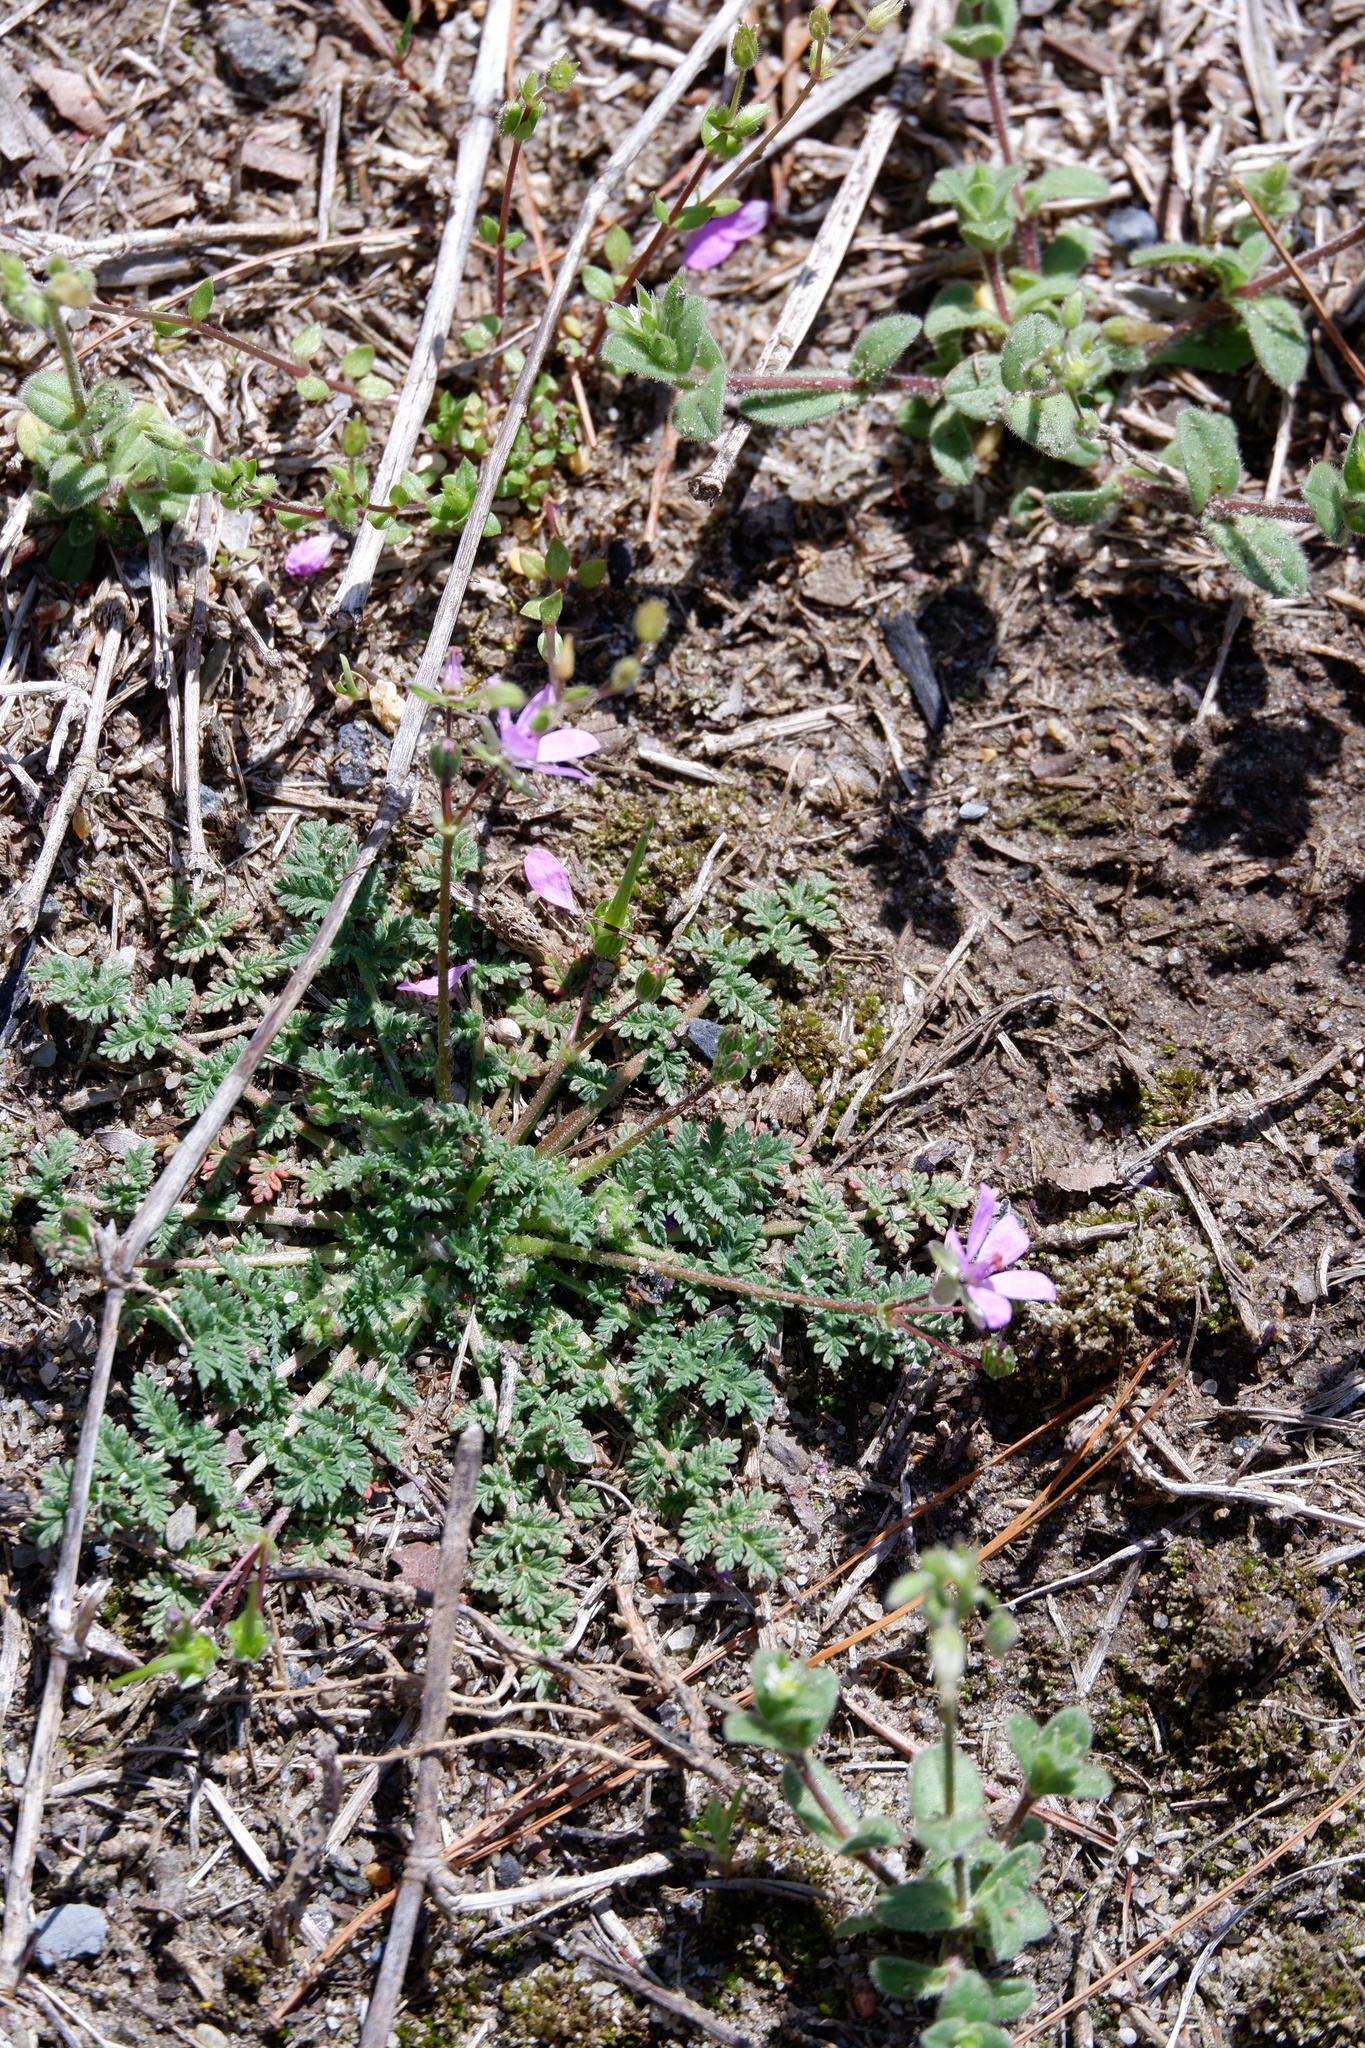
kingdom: Plantae
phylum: Tracheophyta
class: Magnoliopsida
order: Geraniales
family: Geraniaceae
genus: Erodium
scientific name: Erodium cicutarium
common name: Common stork's-bill
